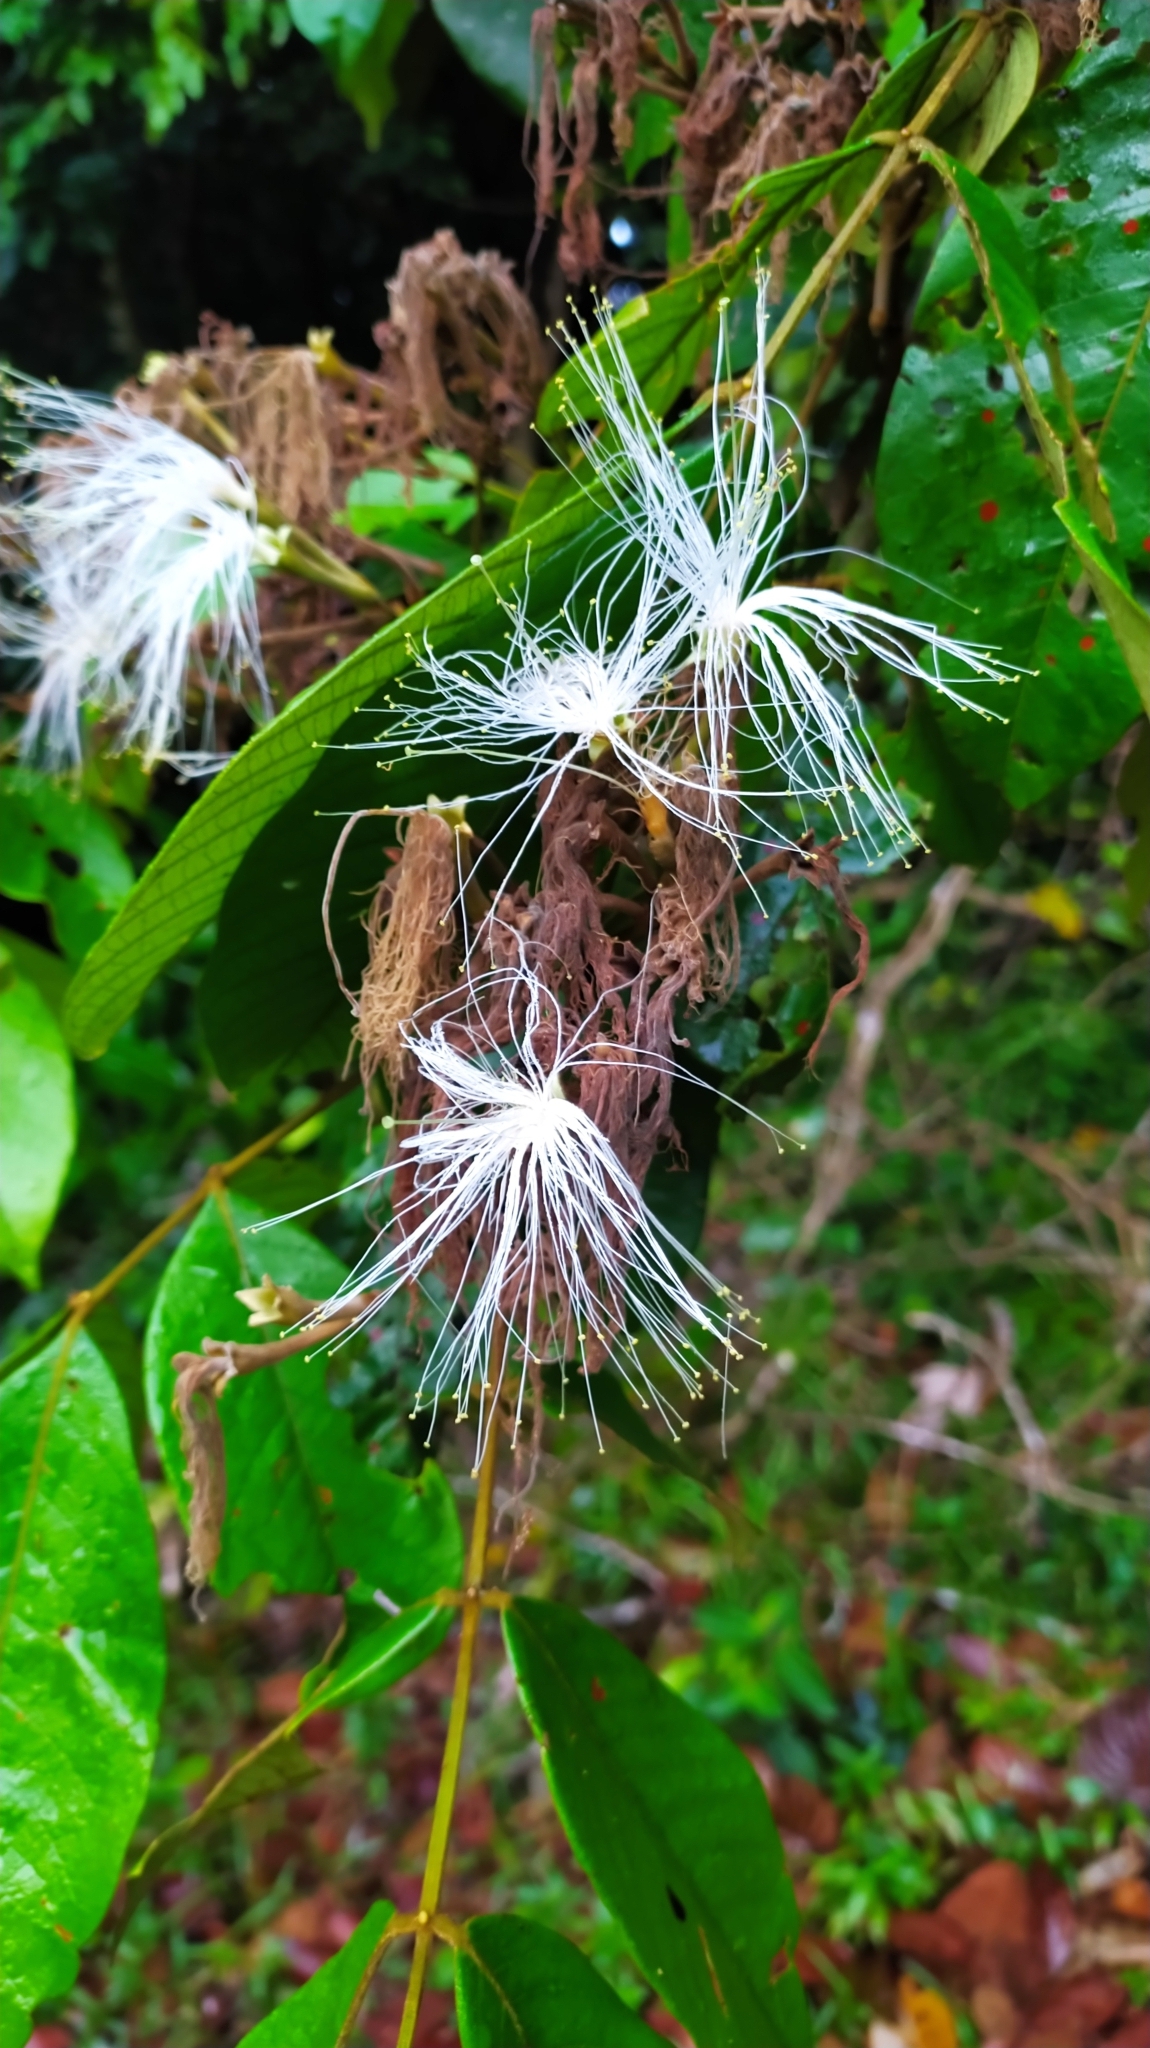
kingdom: Plantae
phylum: Tracheophyta
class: Magnoliopsida
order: Fabales
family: Fabaceae
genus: Inga
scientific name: Inga
